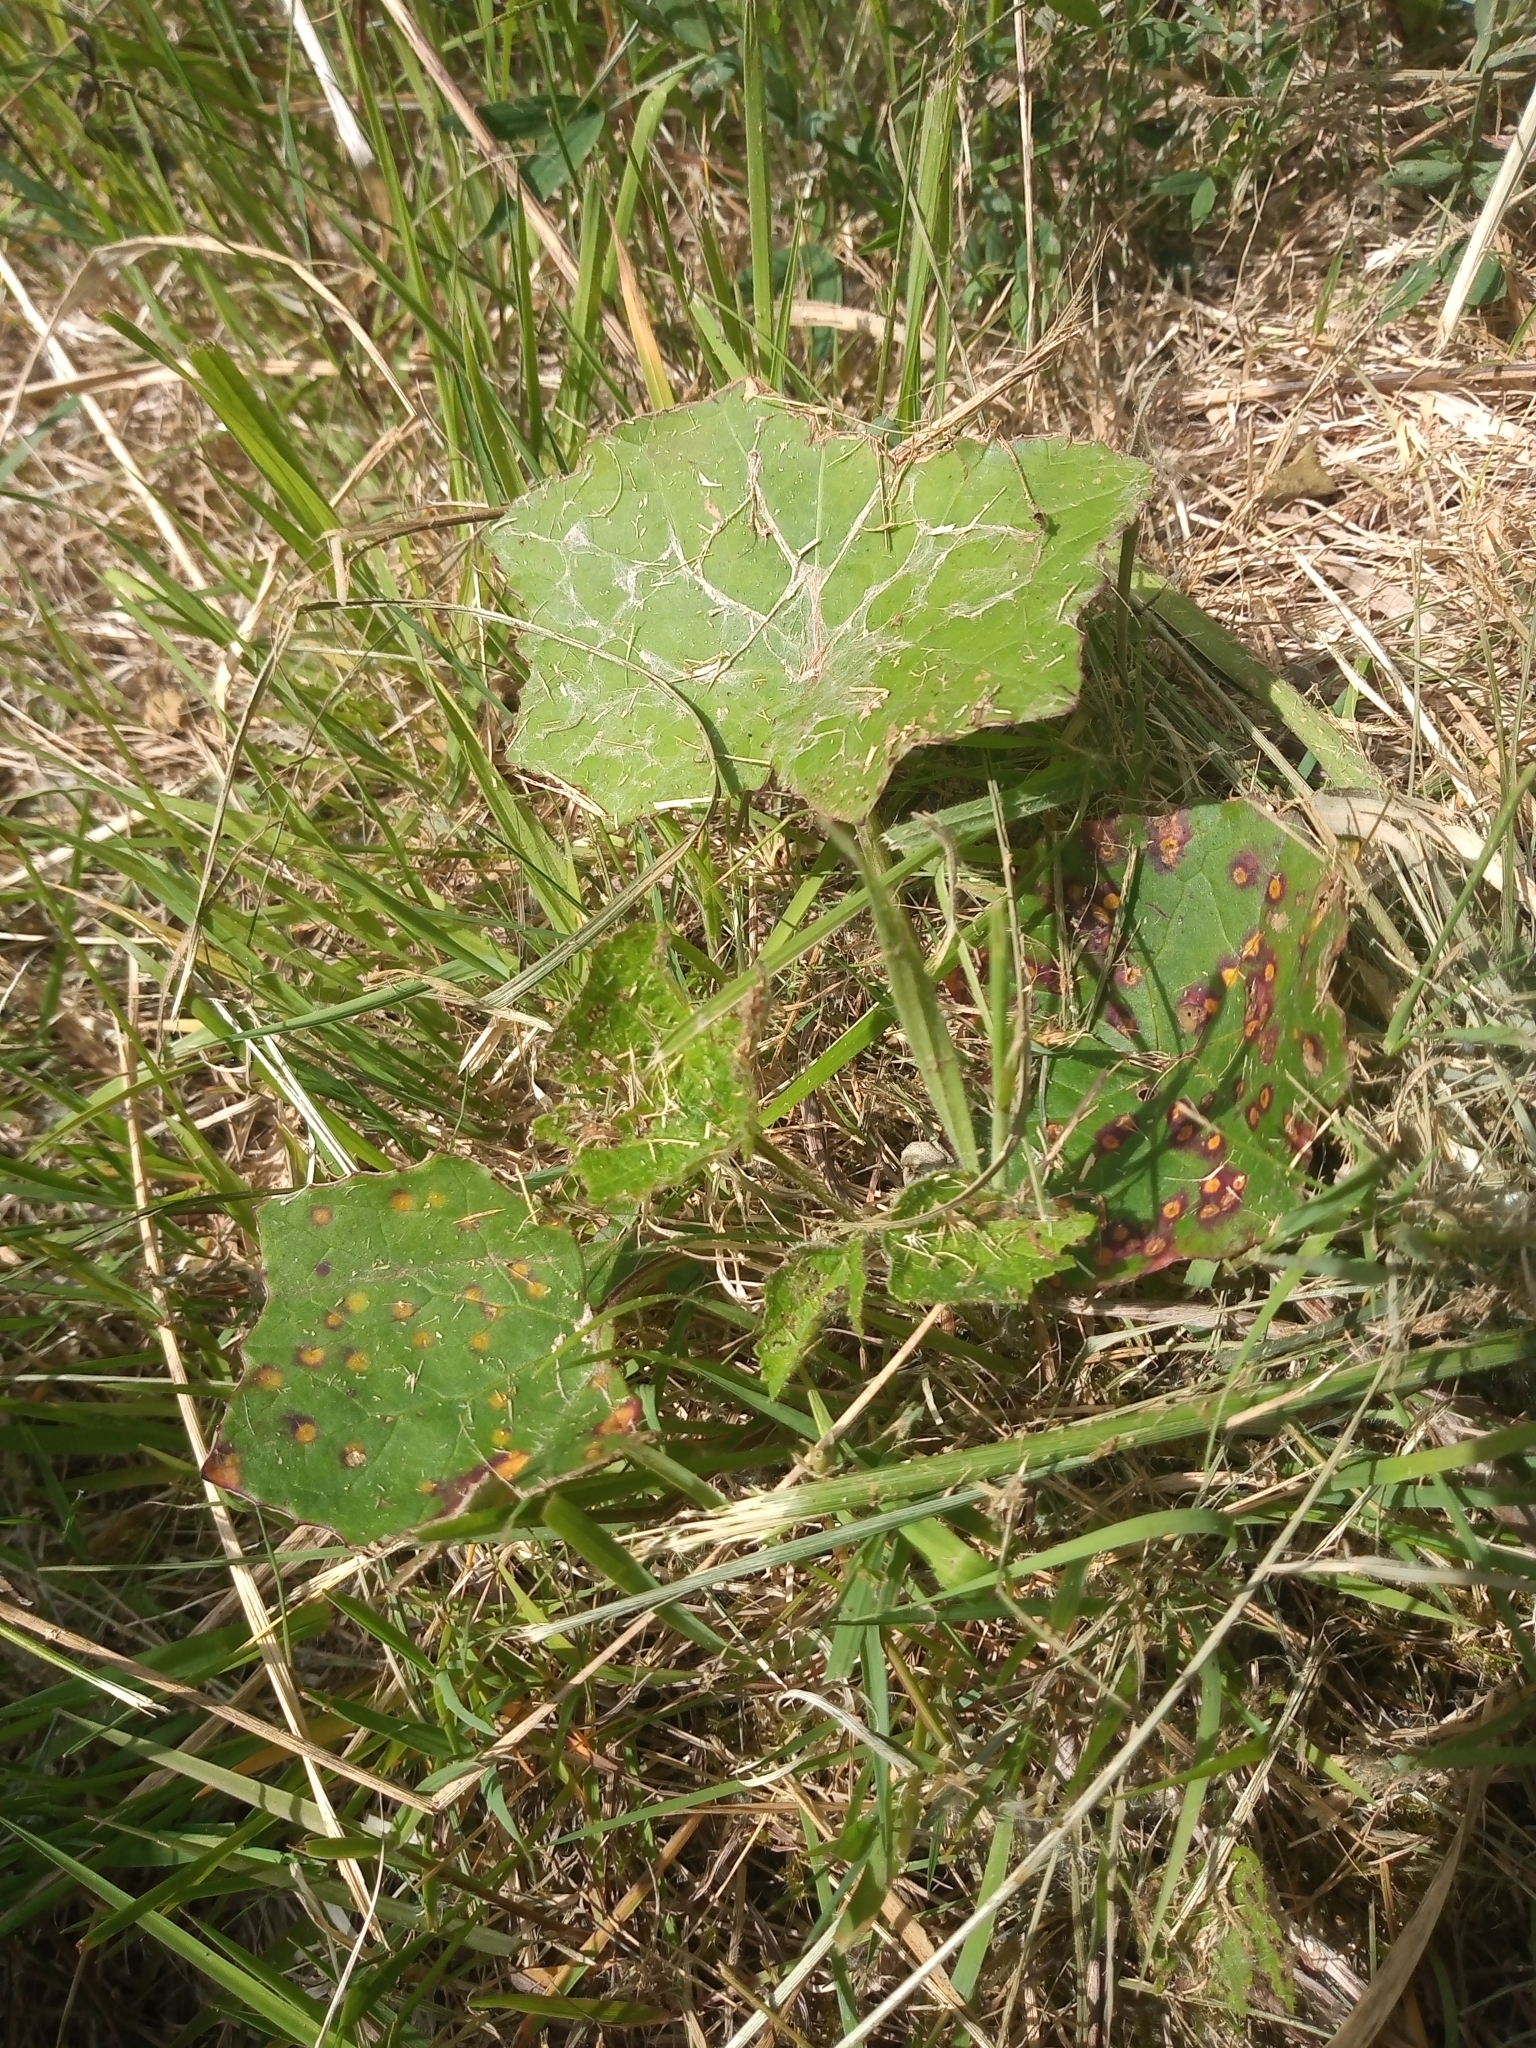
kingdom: Plantae
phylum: Tracheophyta
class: Magnoliopsida
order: Asterales
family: Asteraceae
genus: Tussilago
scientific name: Tussilago farfara
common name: Coltsfoot
